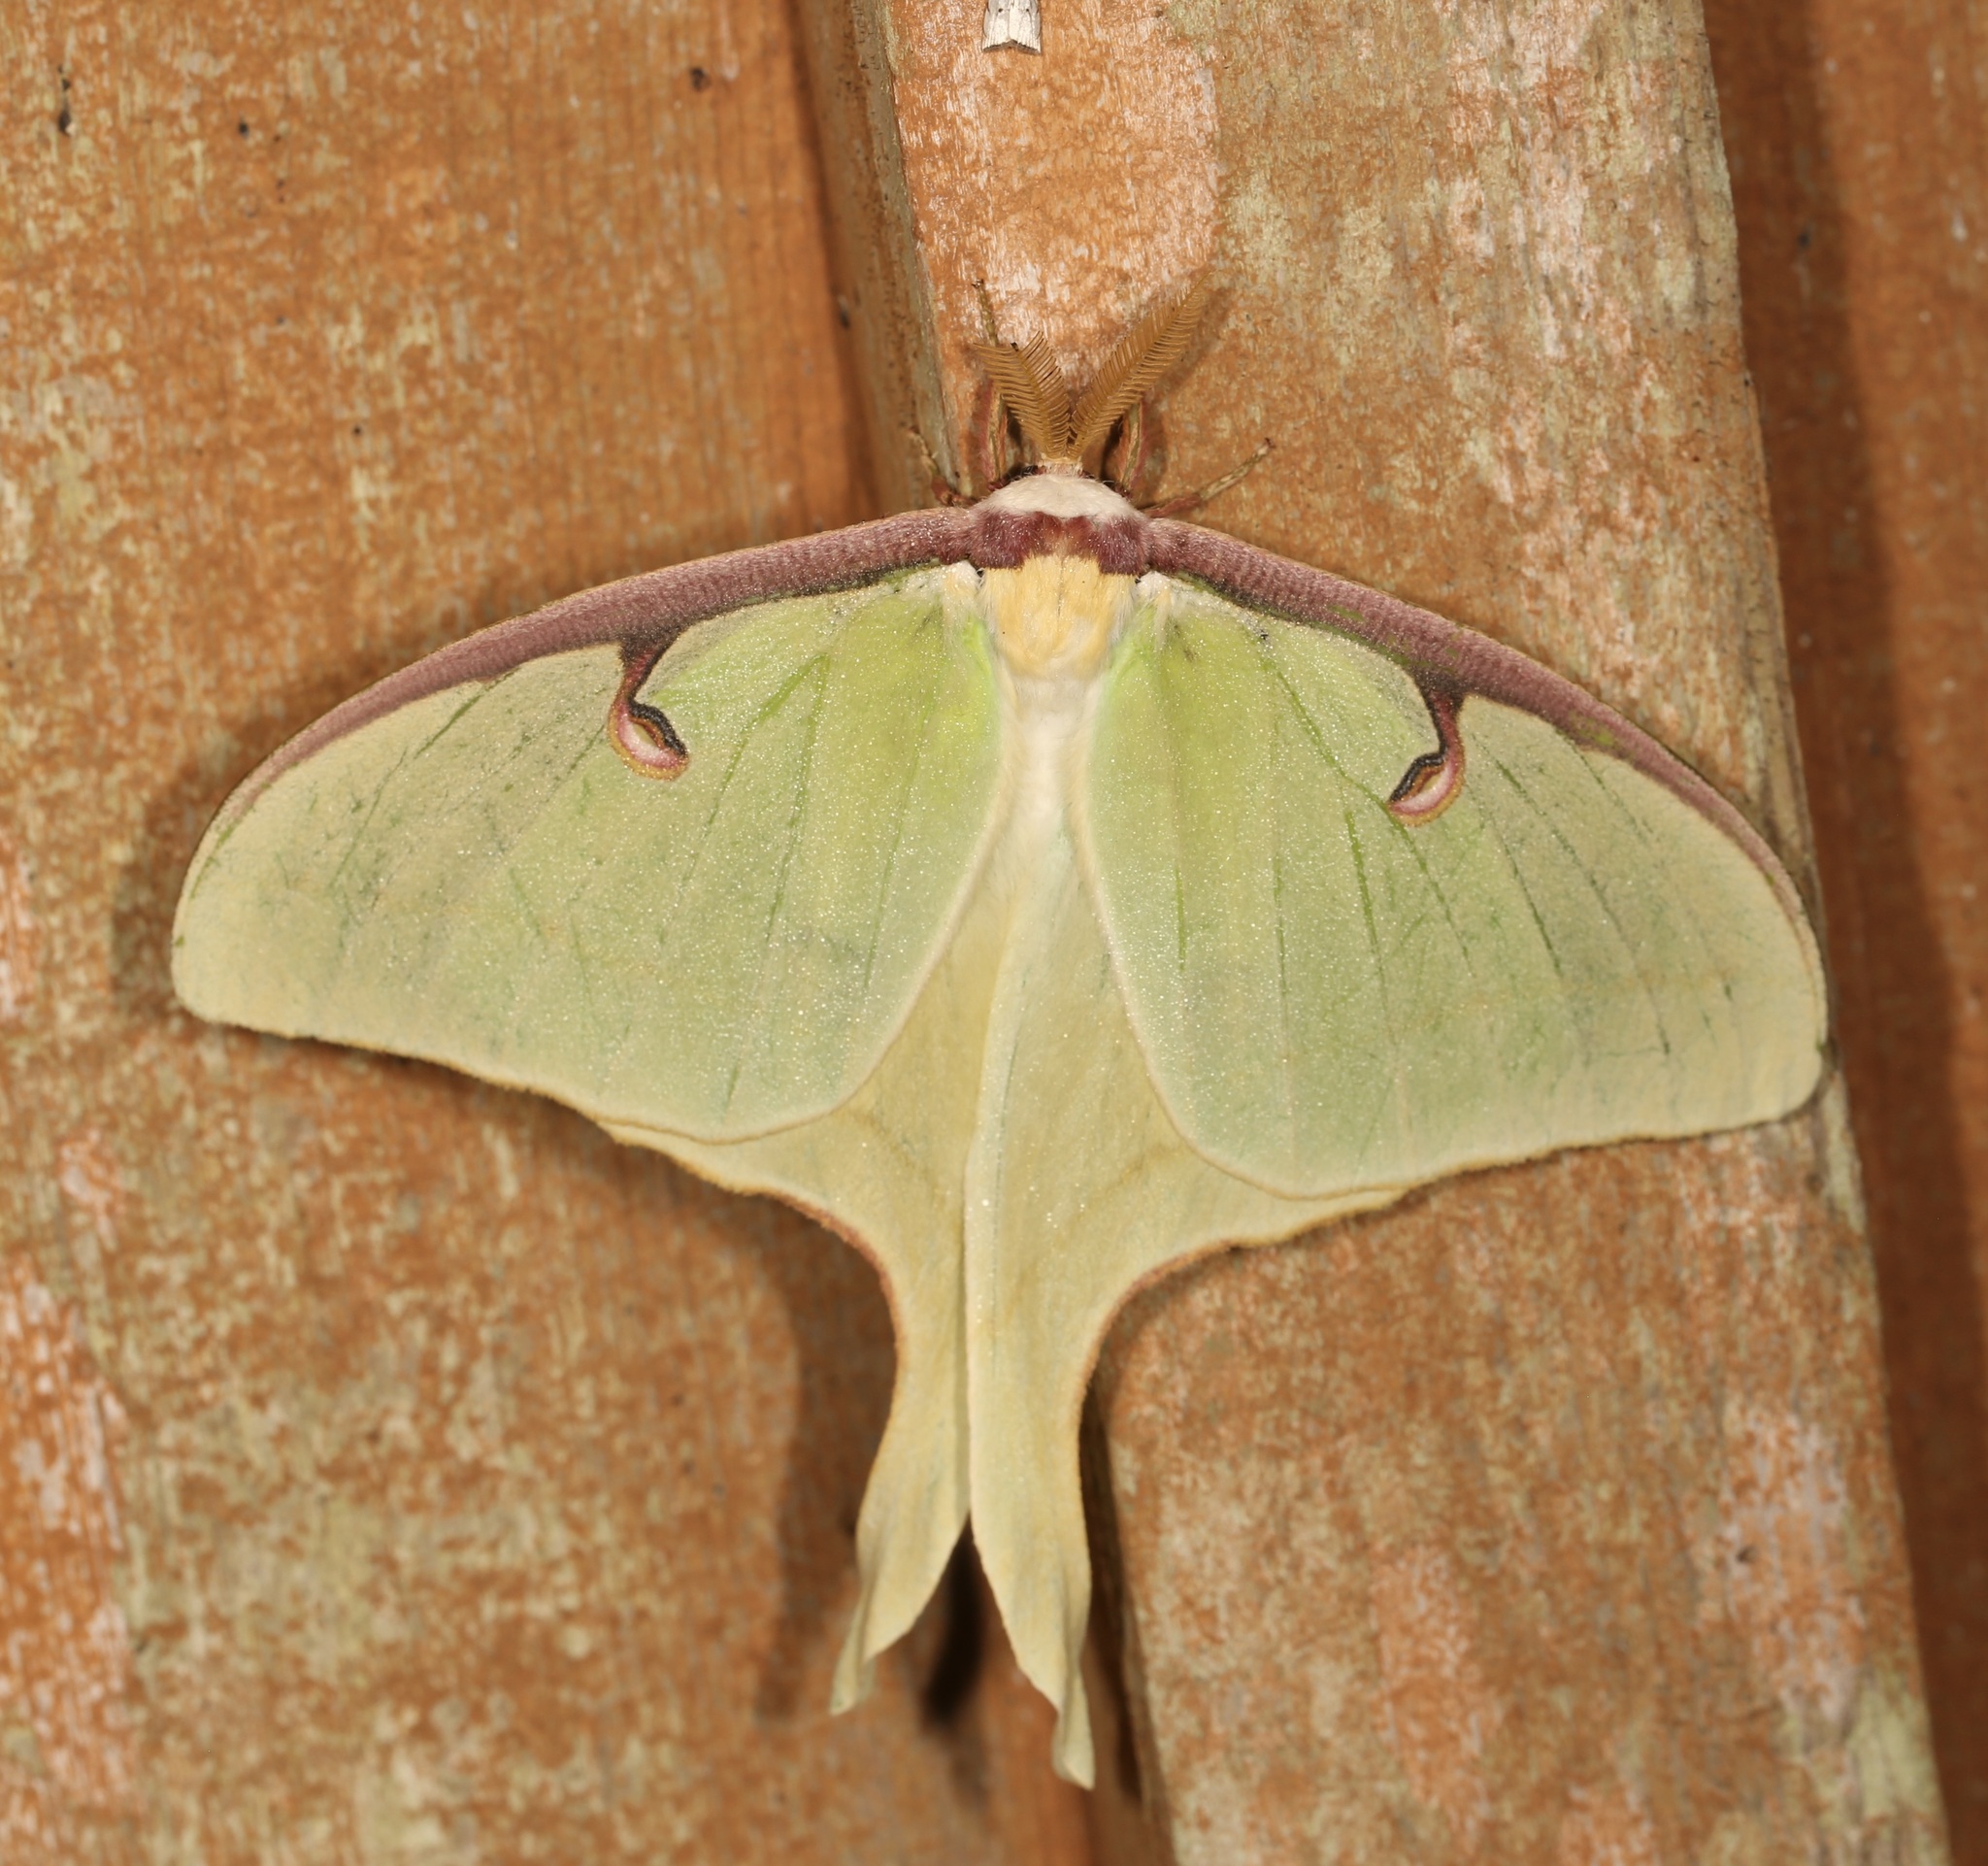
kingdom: Animalia
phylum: Arthropoda
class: Insecta
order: Lepidoptera
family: Saturniidae
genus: Actias
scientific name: Actias luna
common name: Luna moth
